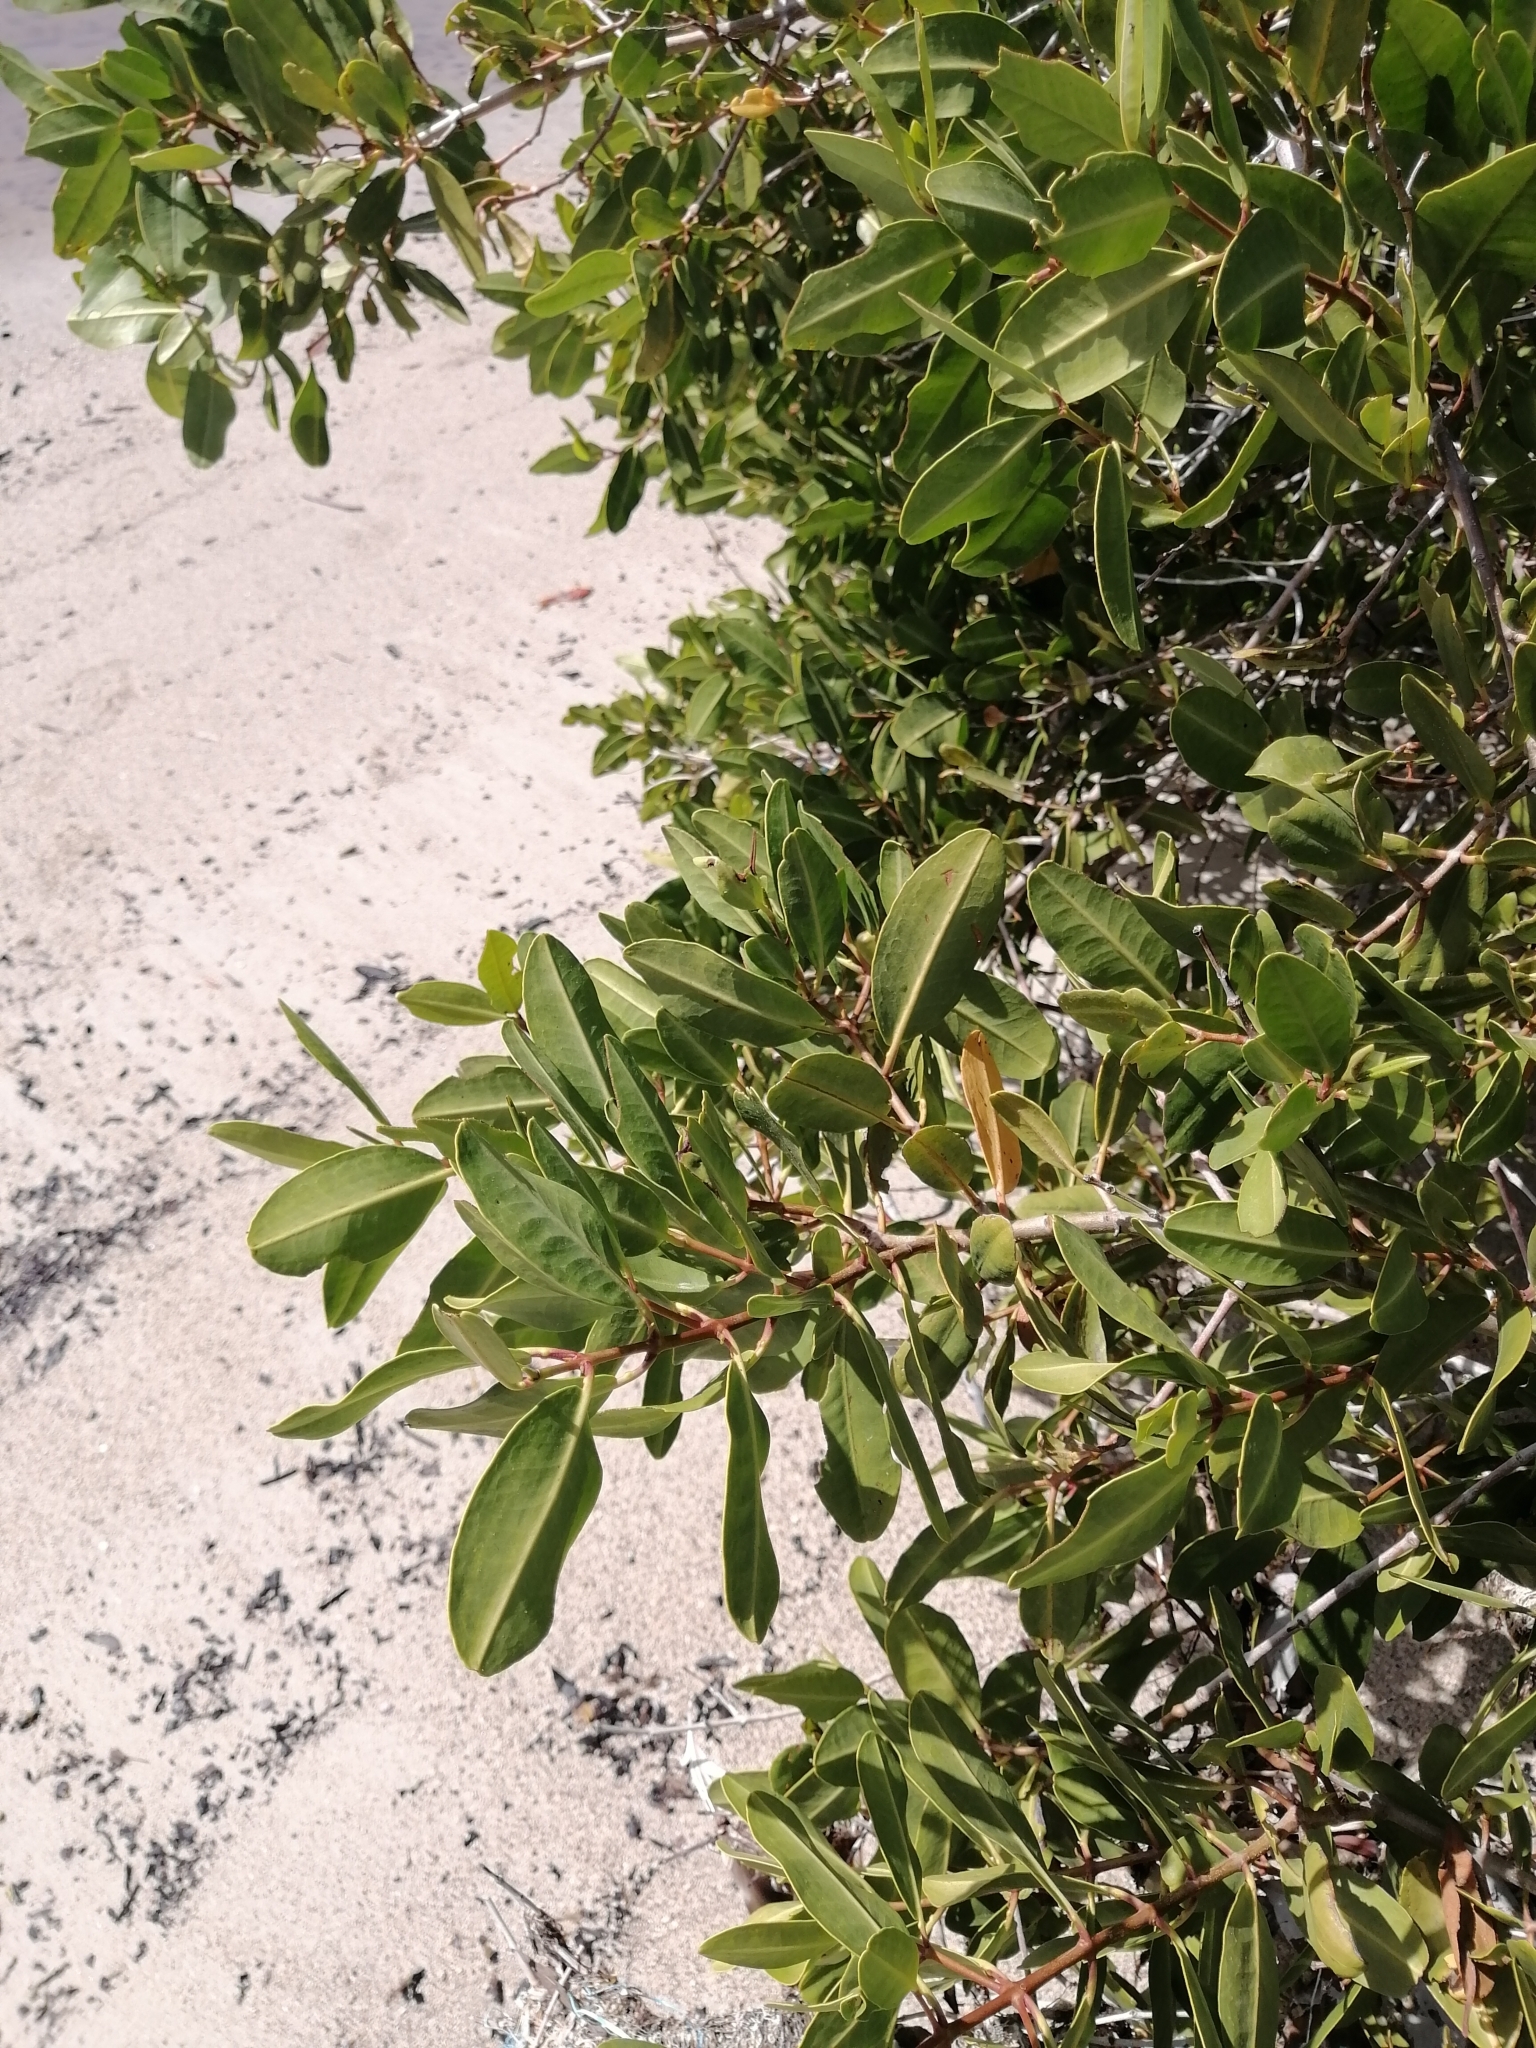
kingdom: Plantae
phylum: Tracheophyta
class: Magnoliopsida
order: Myrtales
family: Combretaceae
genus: Laguncularia
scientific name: Laguncularia racemosa
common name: White mangrove
